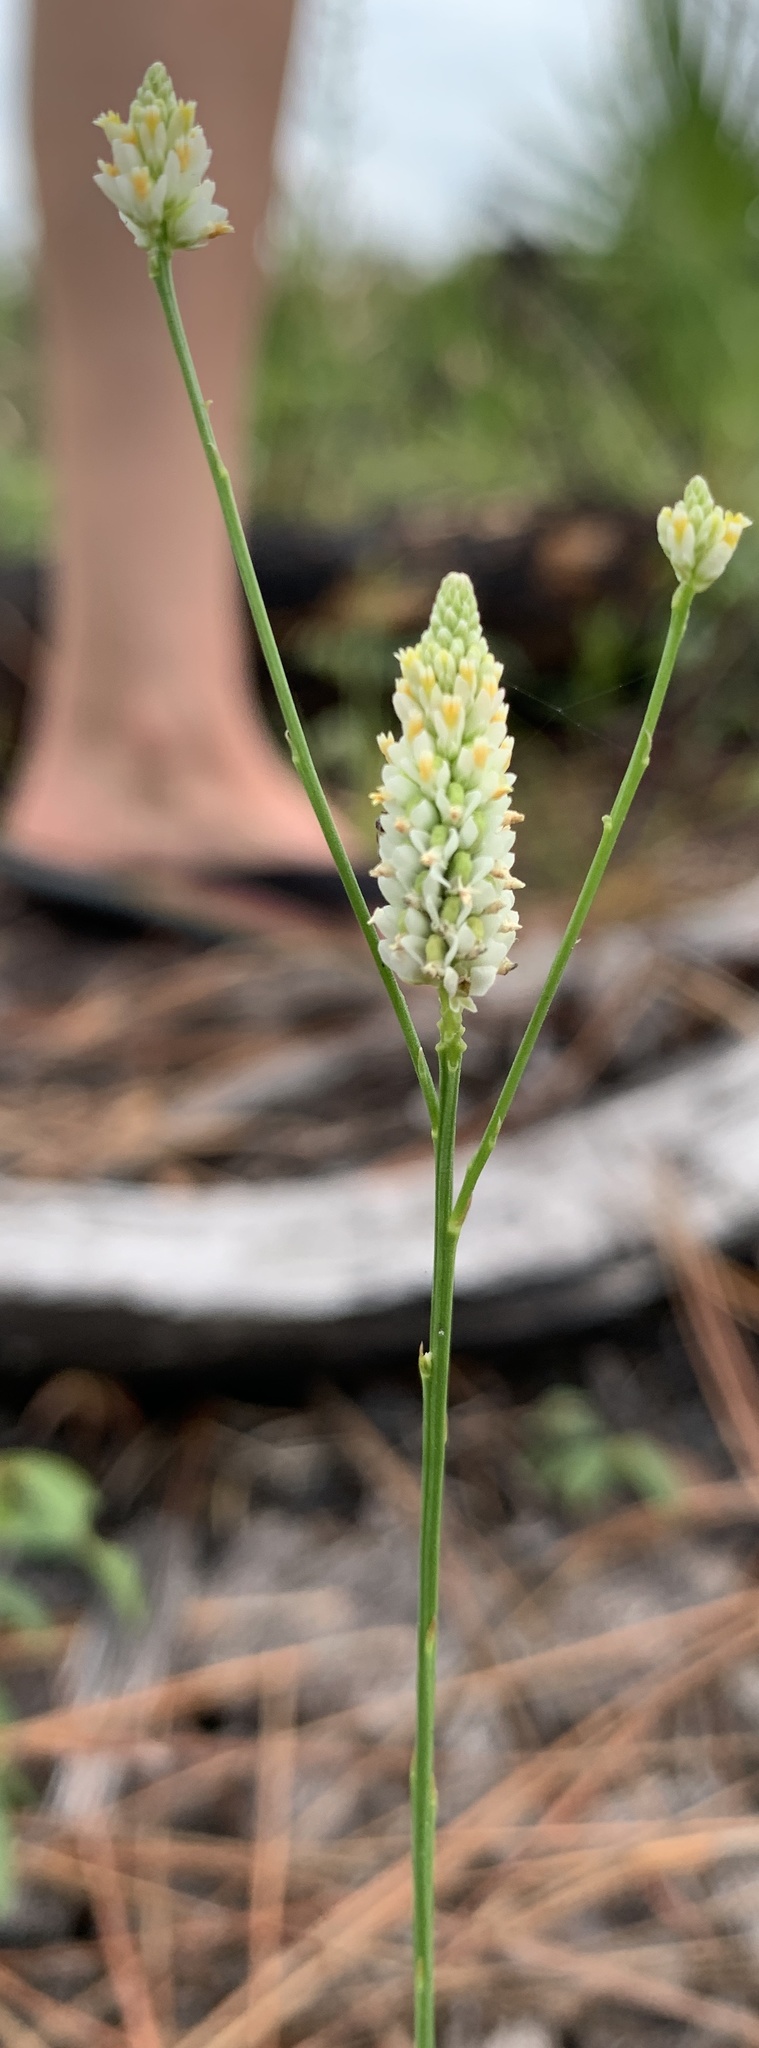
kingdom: Plantae
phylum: Tracheophyta
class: Magnoliopsida
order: Fabales
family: Polygalaceae
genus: Polygala
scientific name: Polygala setacea
